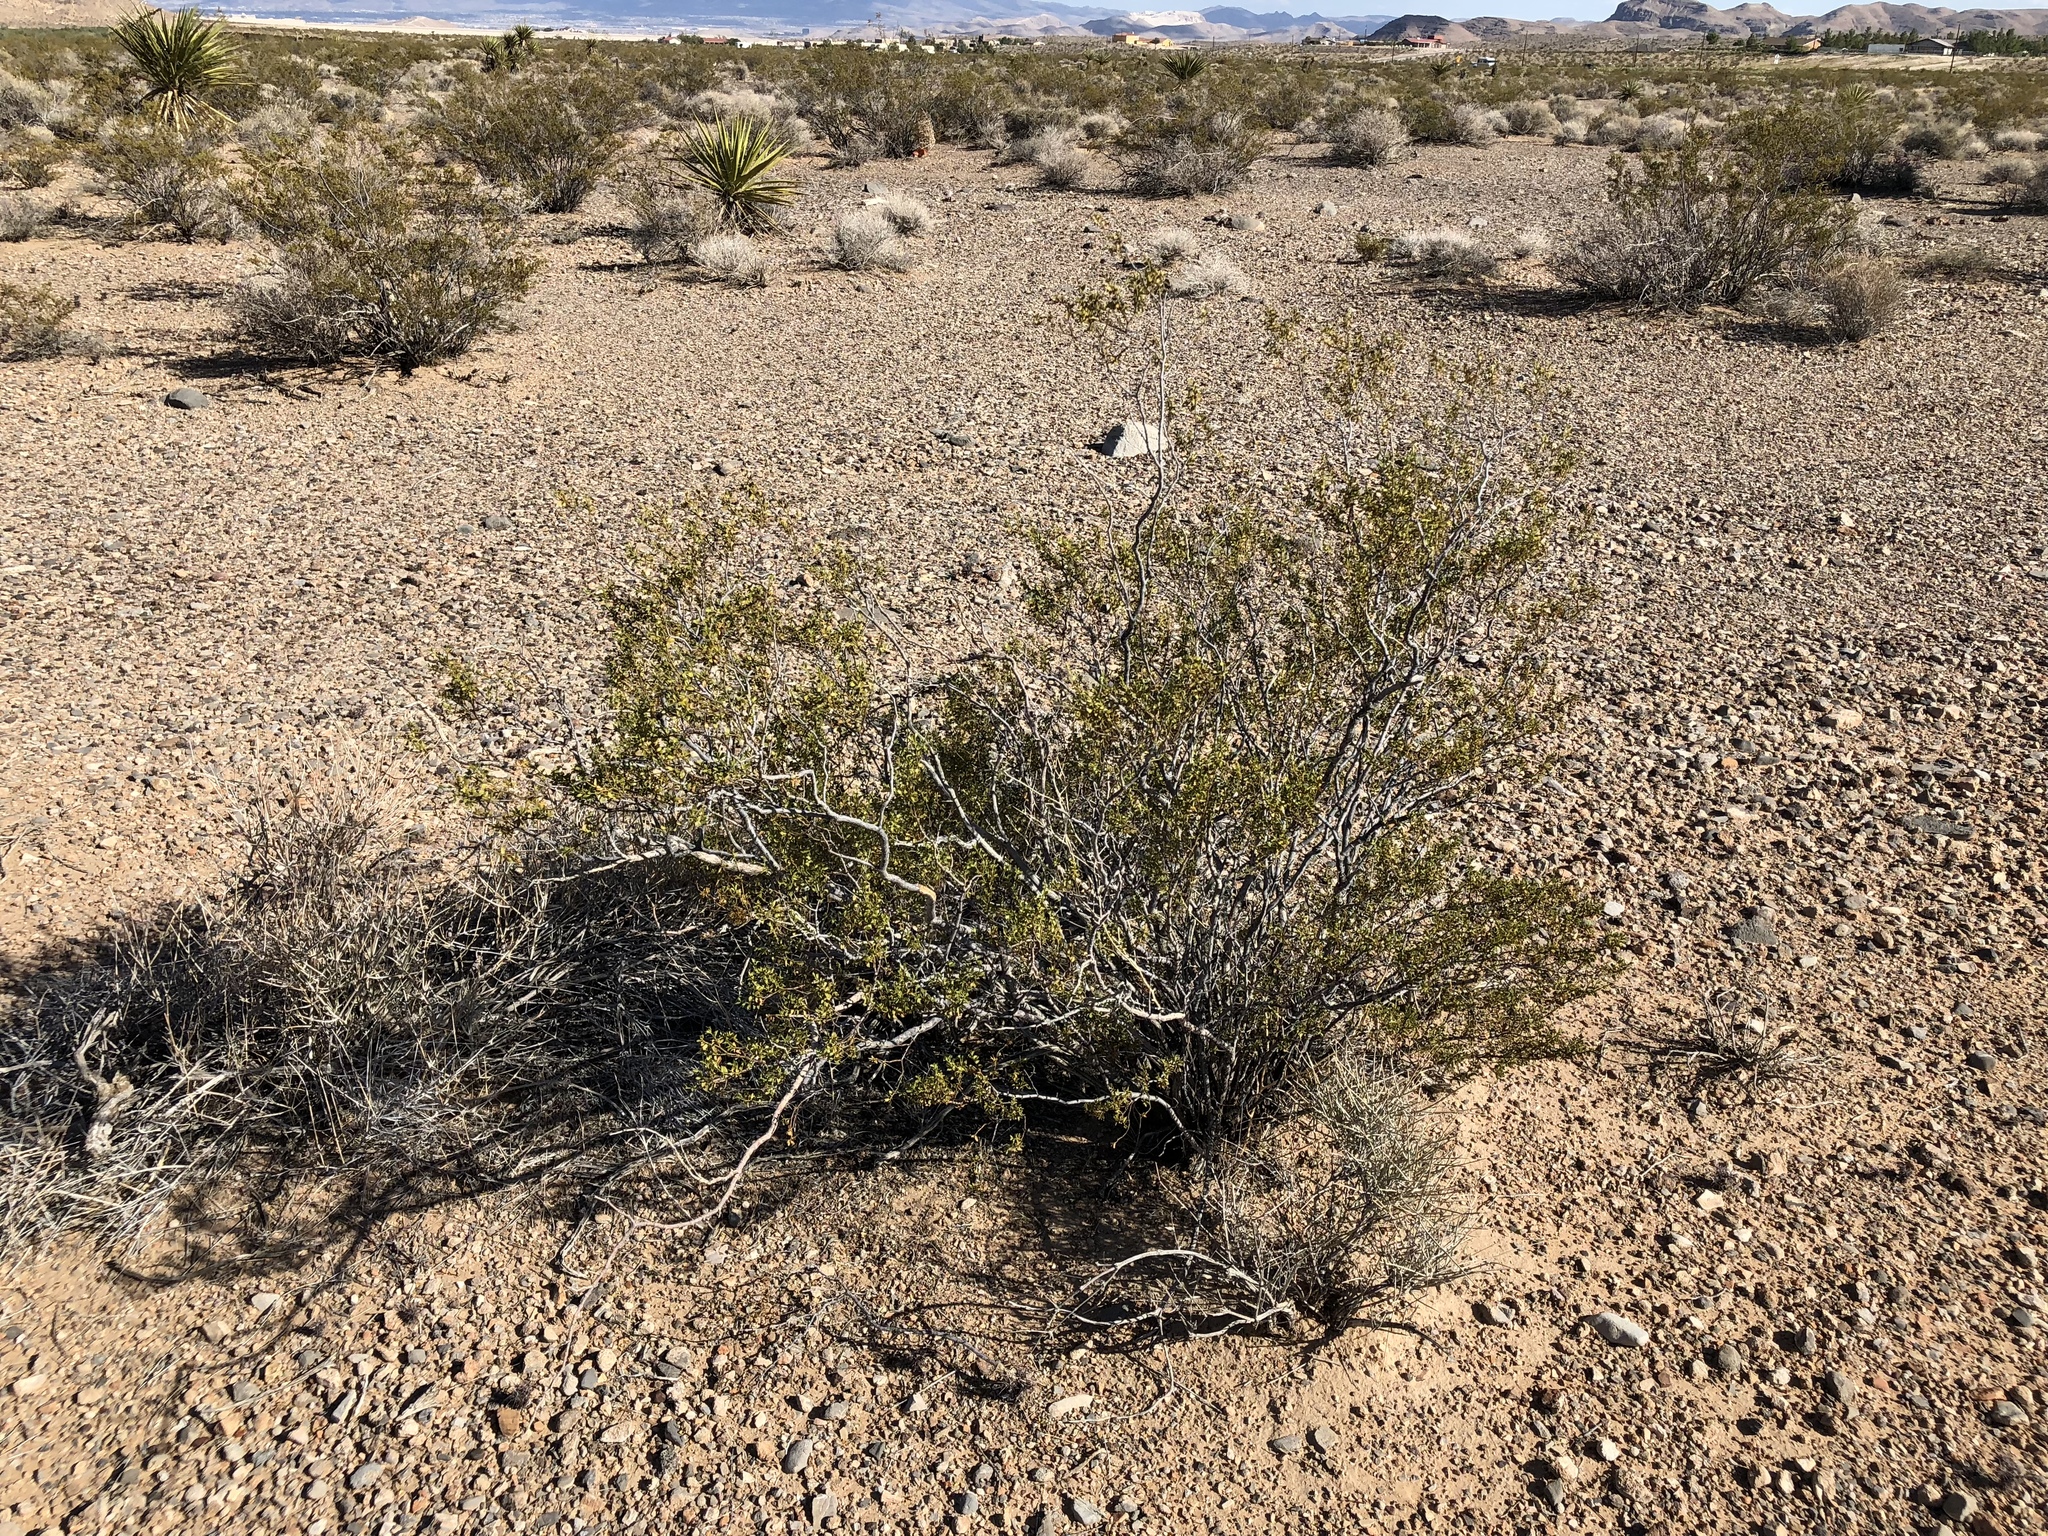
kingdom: Plantae
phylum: Tracheophyta
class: Magnoliopsida
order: Zygophyllales
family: Zygophyllaceae
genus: Larrea
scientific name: Larrea tridentata
